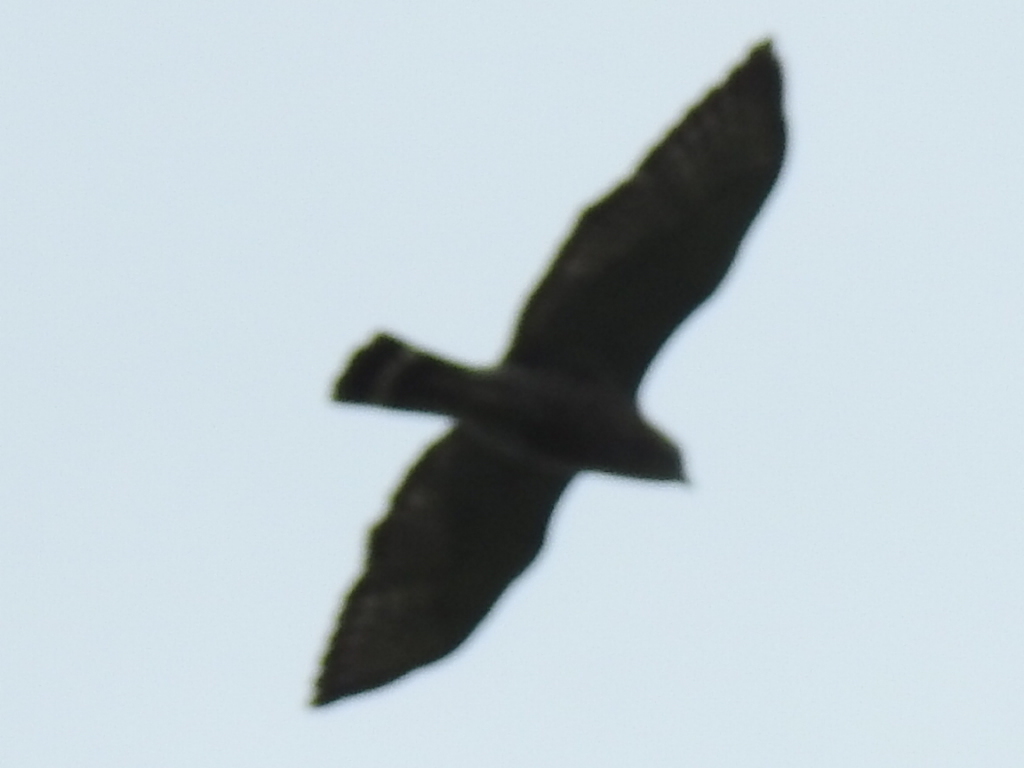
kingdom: Animalia
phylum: Chordata
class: Aves
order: Accipitriformes
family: Accipitridae
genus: Buteo
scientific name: Buteo platypterus
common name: Broad-winged hawk
